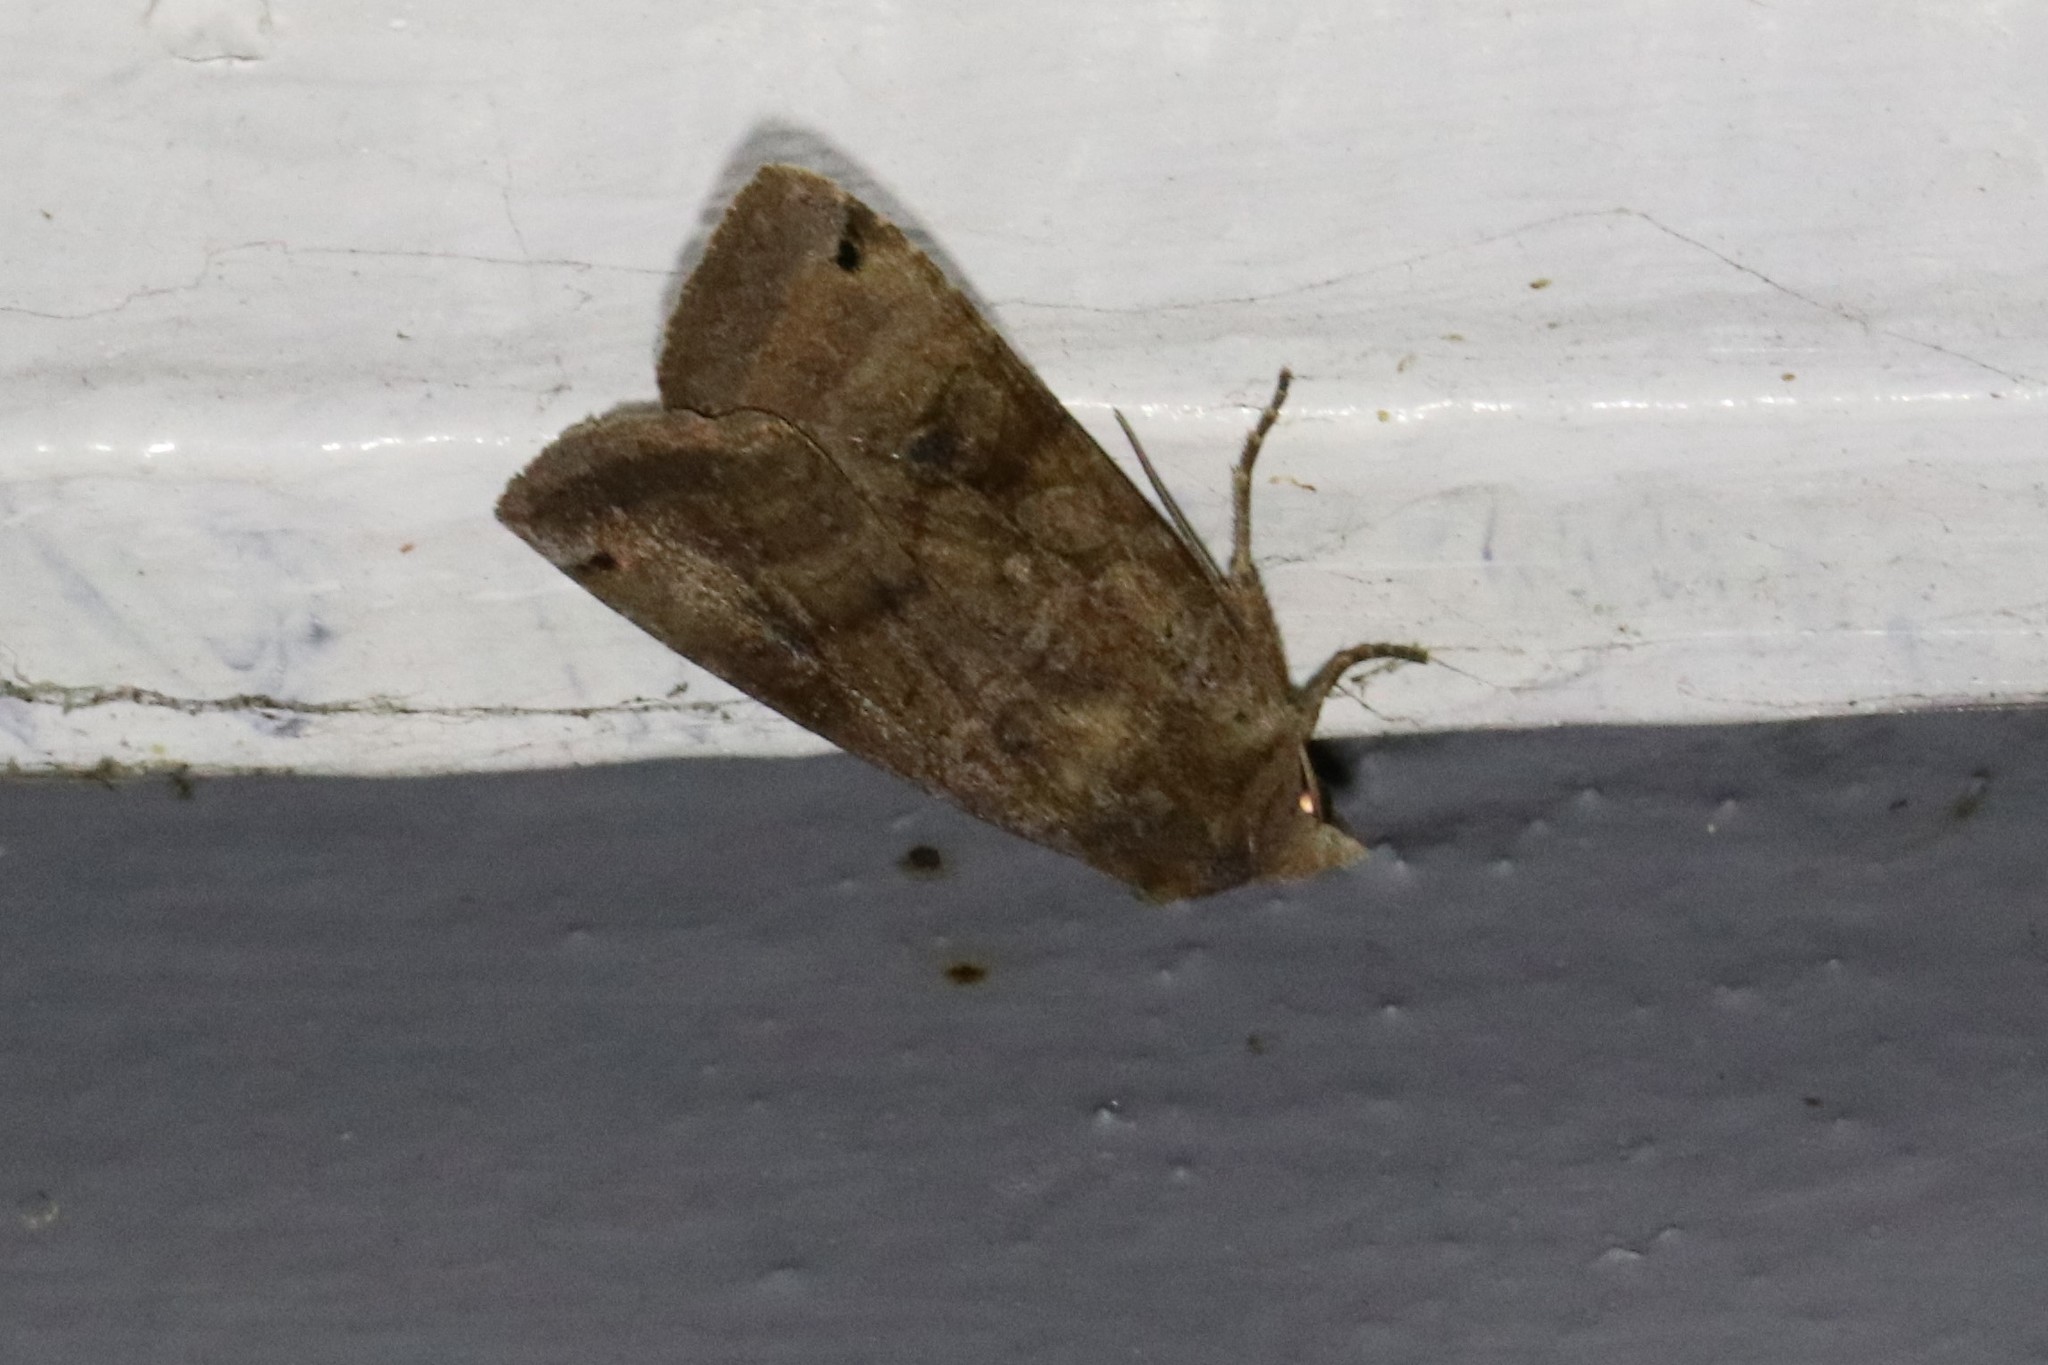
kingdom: Animalia
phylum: Arthropoda
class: Insecta
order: Lepidoptera
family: Noctuidae
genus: Xestia
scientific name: Xestia smithii
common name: Smith's dart
